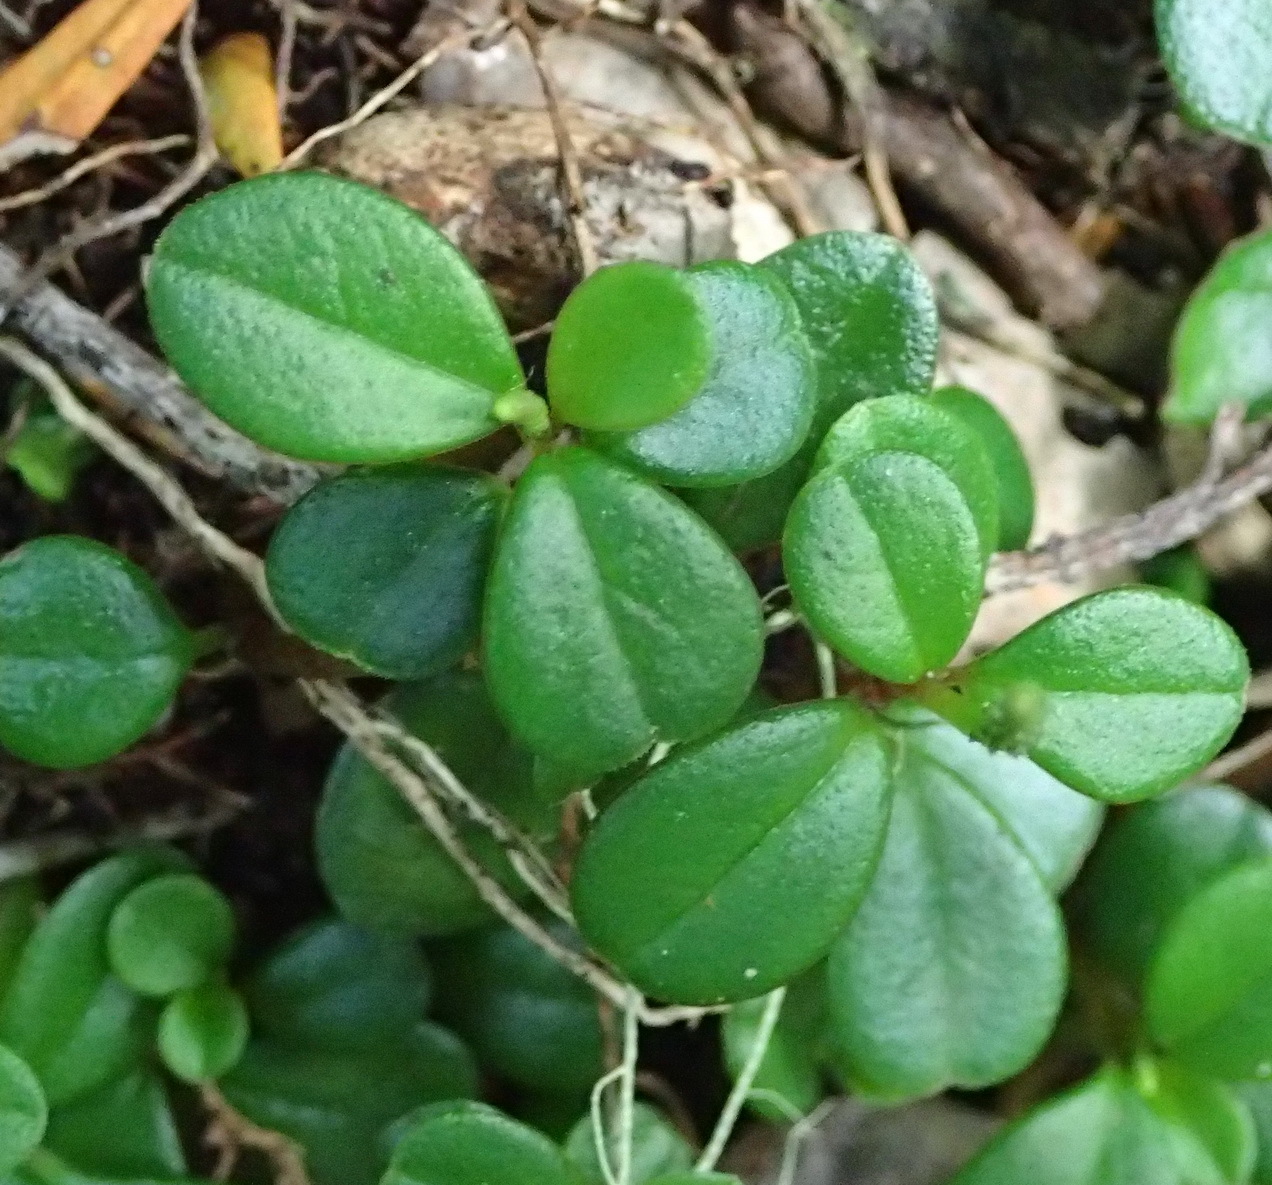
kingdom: Plantae
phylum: Tracheophyta
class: Magnoliopsida
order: Piperales
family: Piperaceae
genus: Peperomia
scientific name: Peperomia retusa
